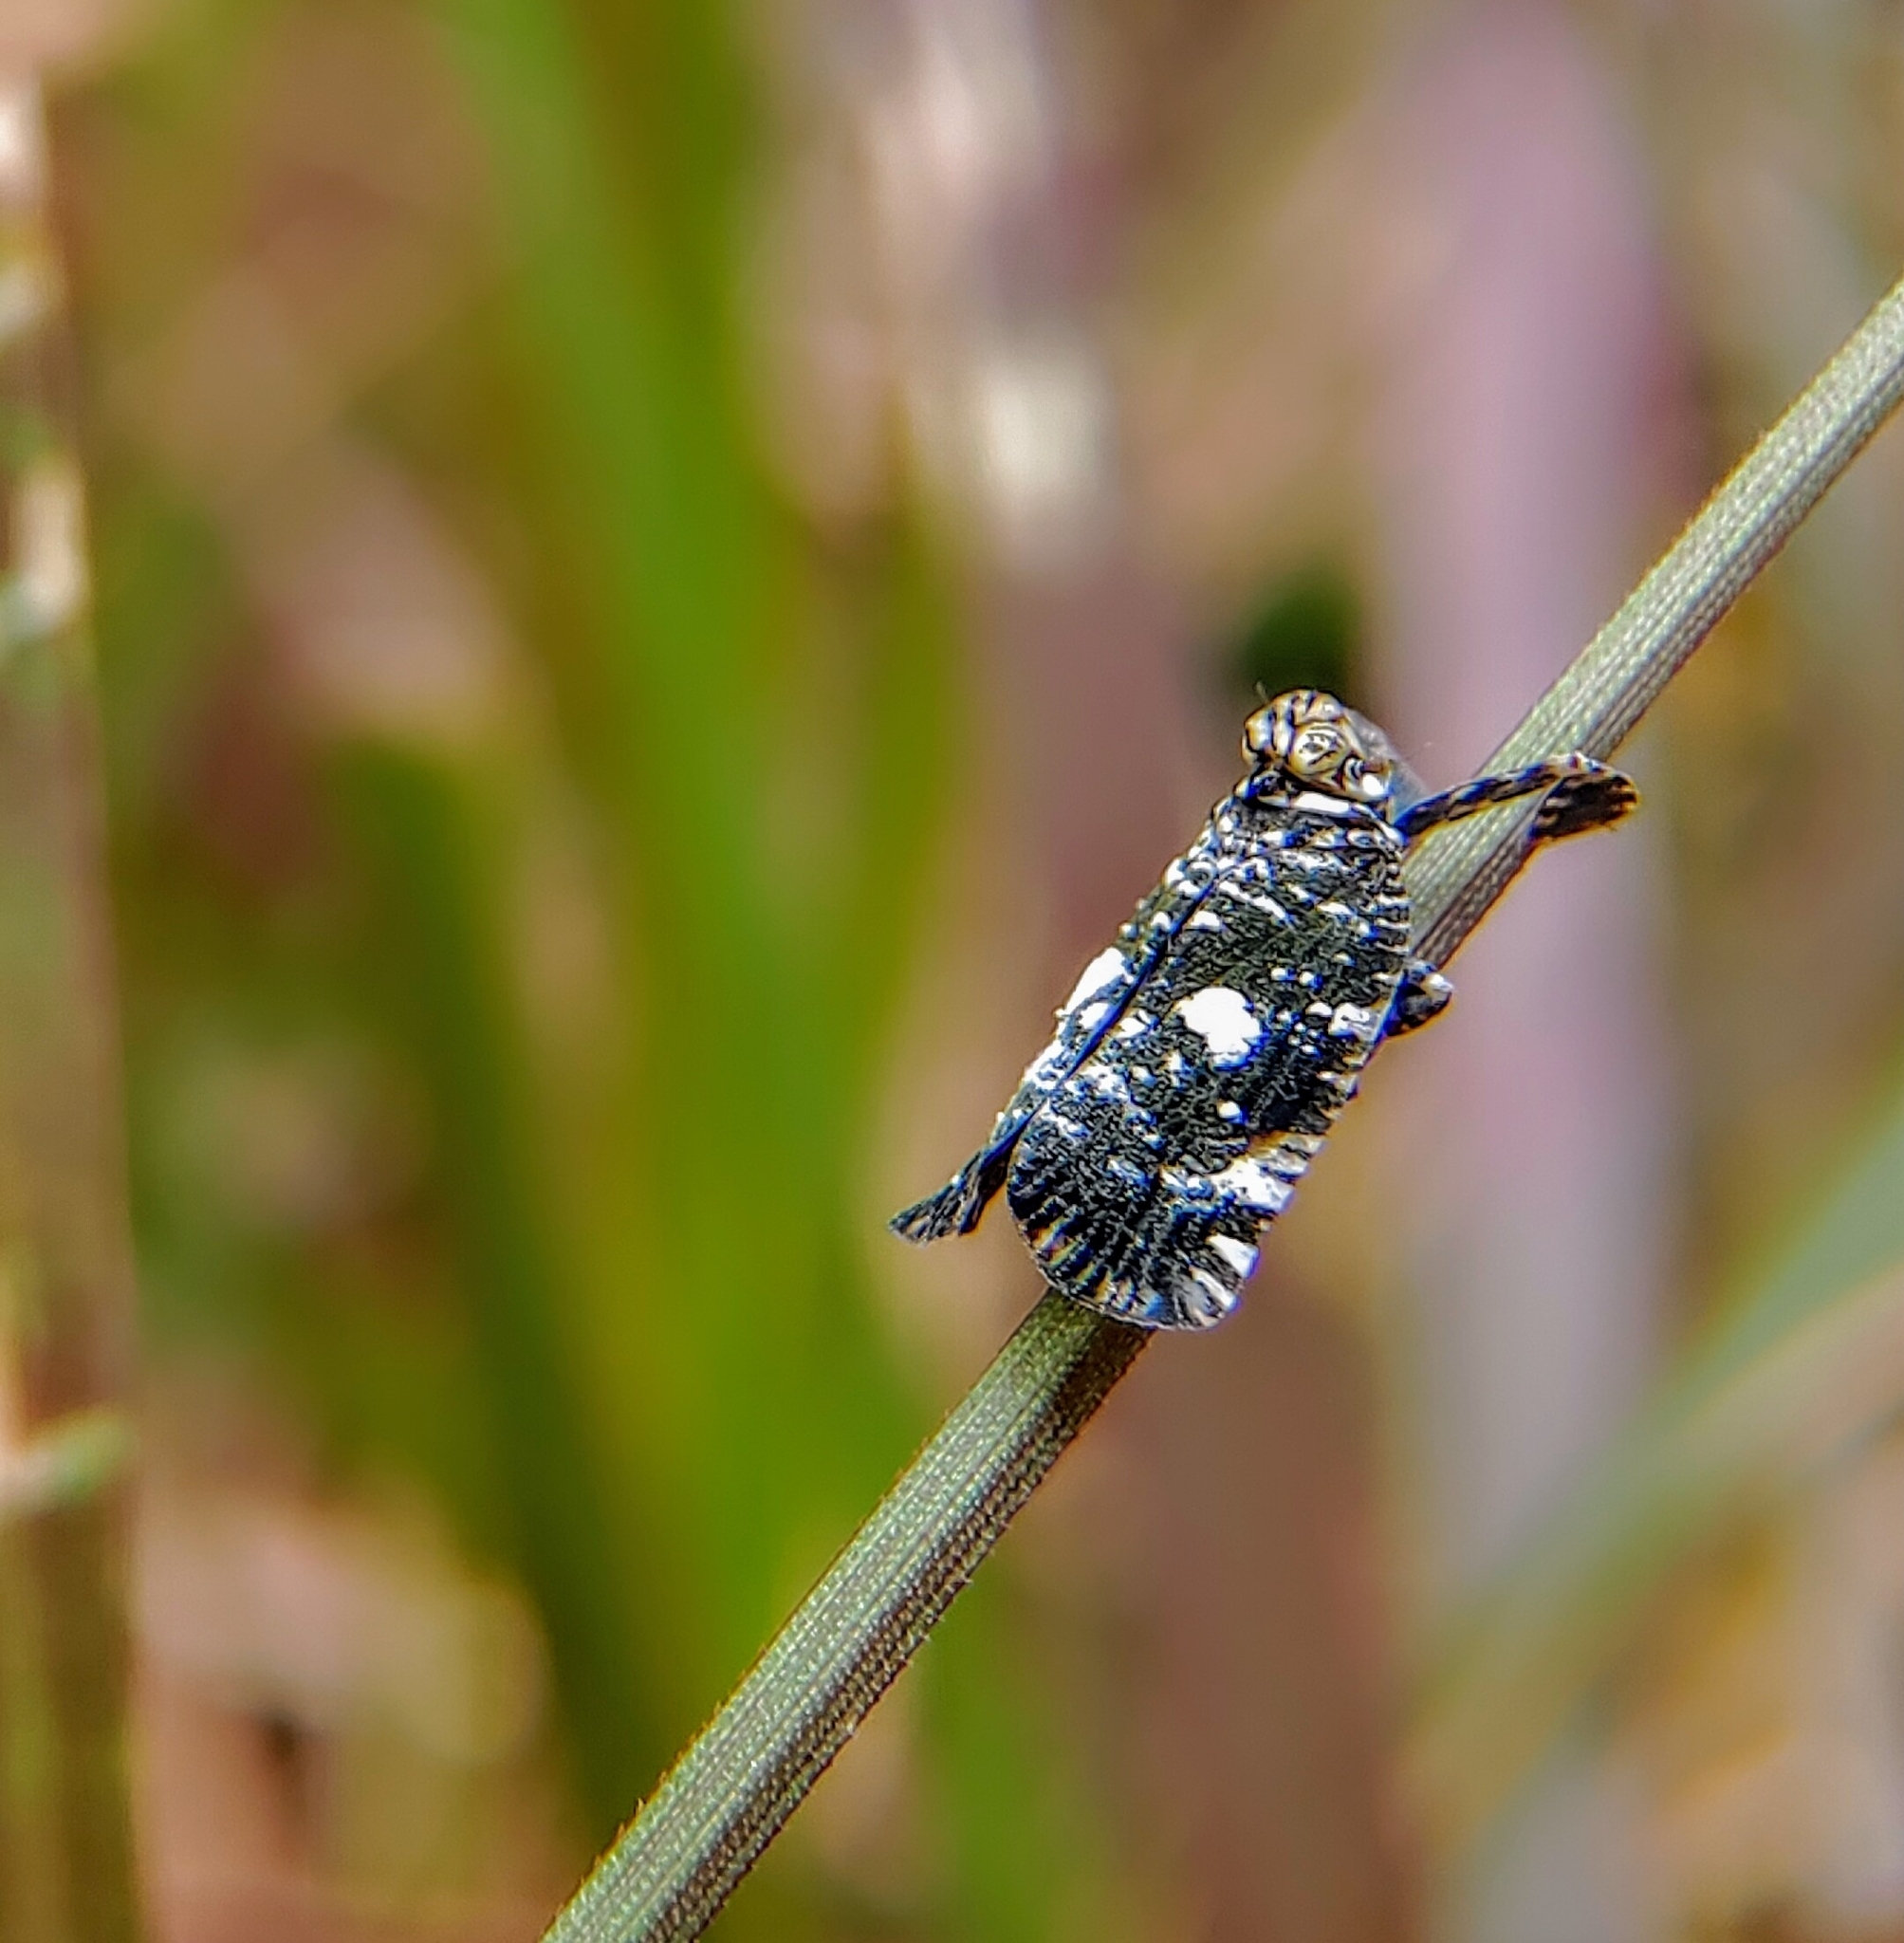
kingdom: Animalia
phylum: Arthropoda
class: Insecta
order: Hemiptera
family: Lophopidae
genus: Elasmoscelis
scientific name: Elasmoscelis perforata
